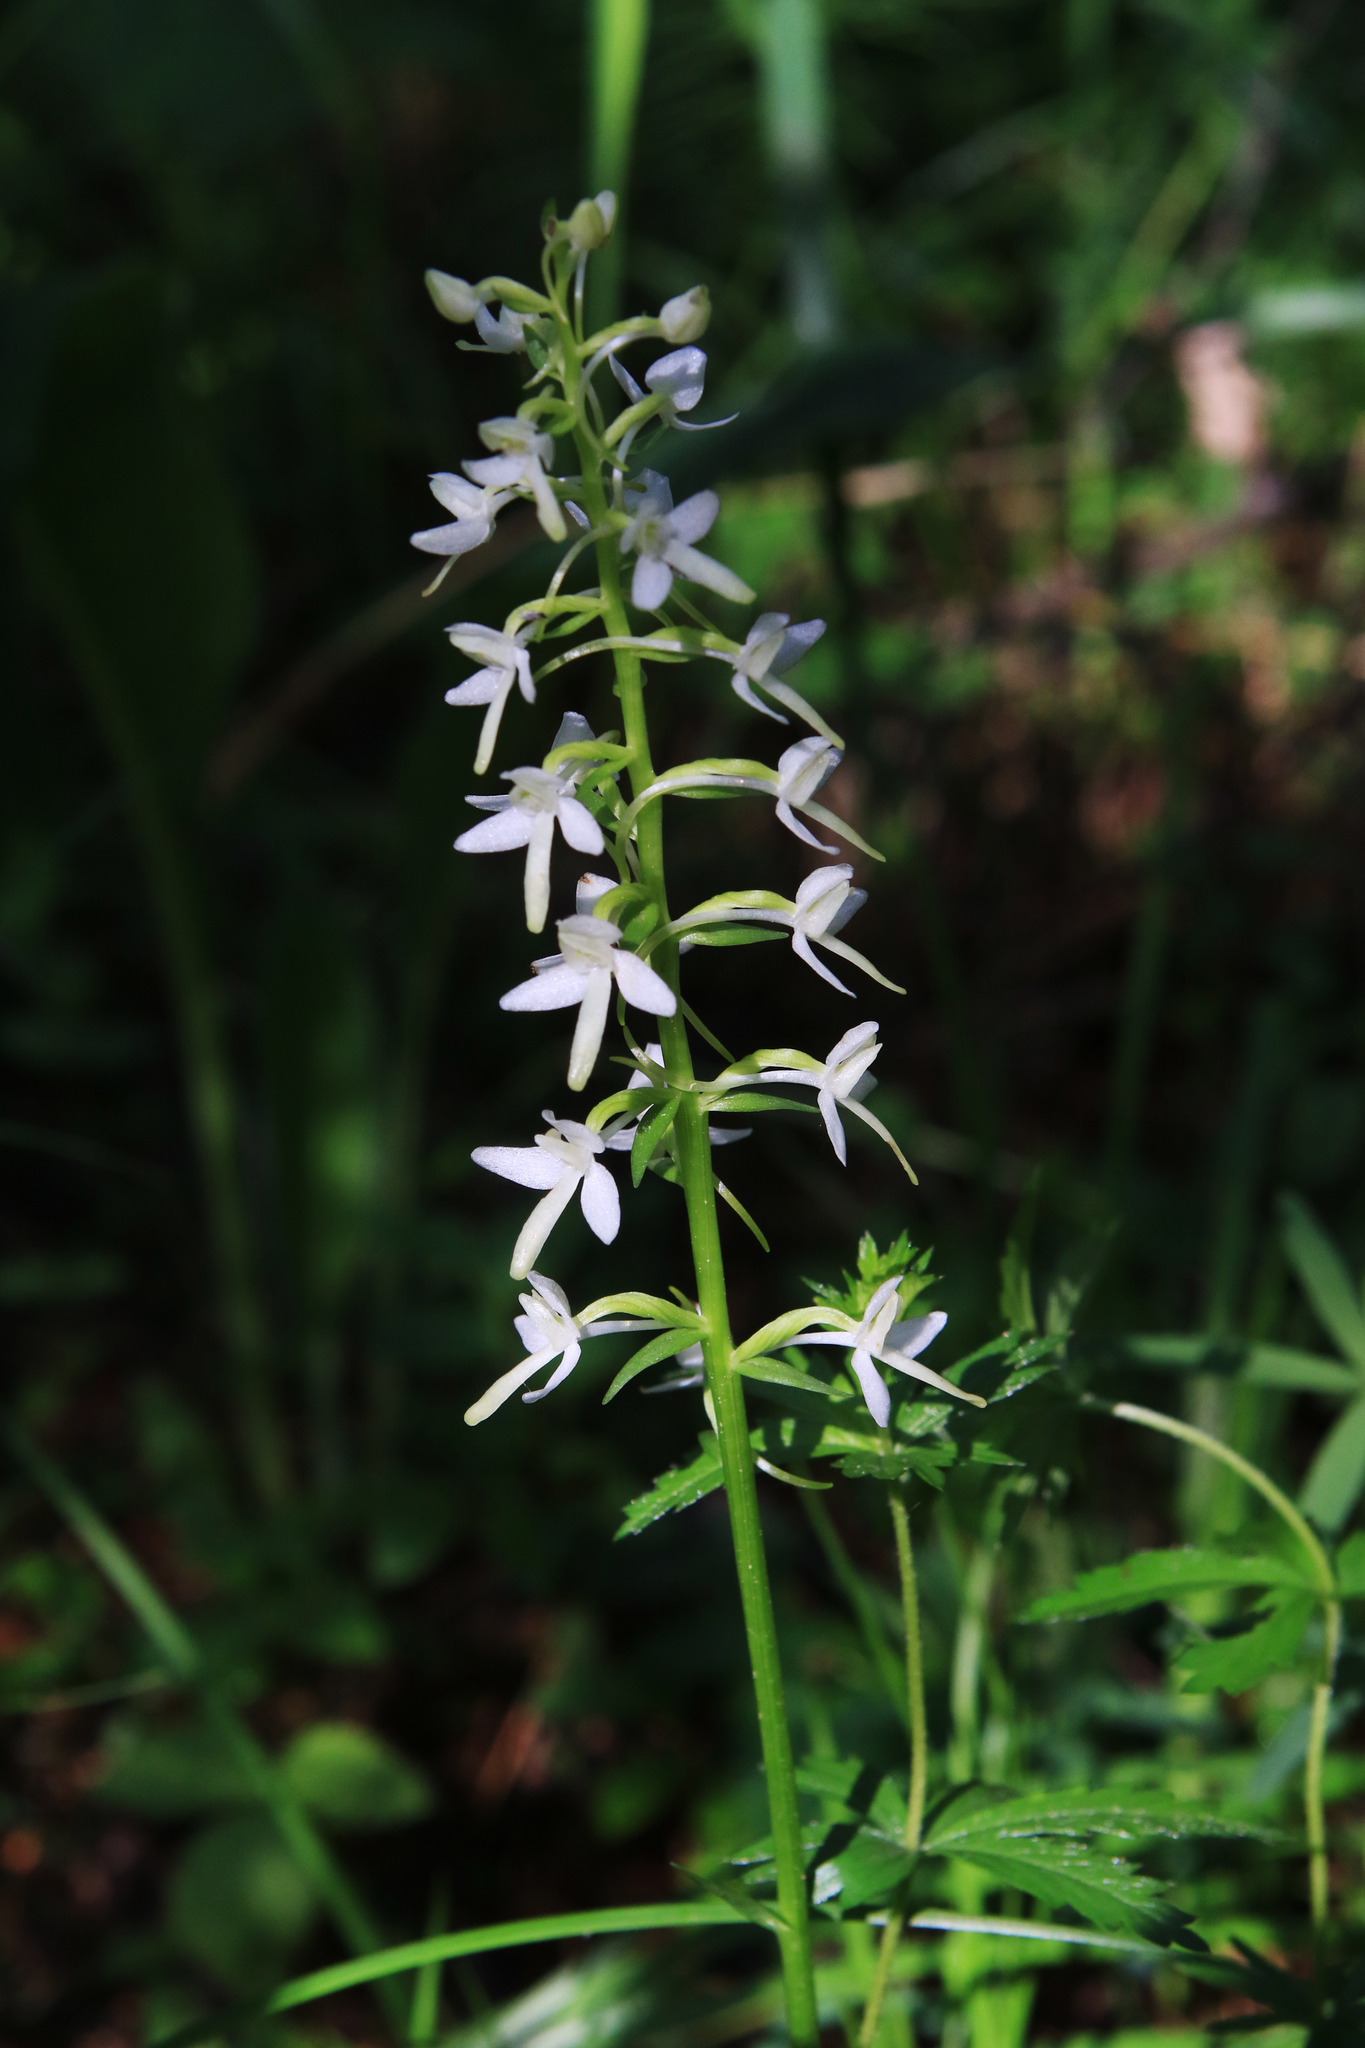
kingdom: Plantae
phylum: Tracheophyta
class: Liliopsida
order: Asparagales
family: Orchidaceae
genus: Platanthera
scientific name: Platanthera bifolia
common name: Lesser butterfly-orchid
